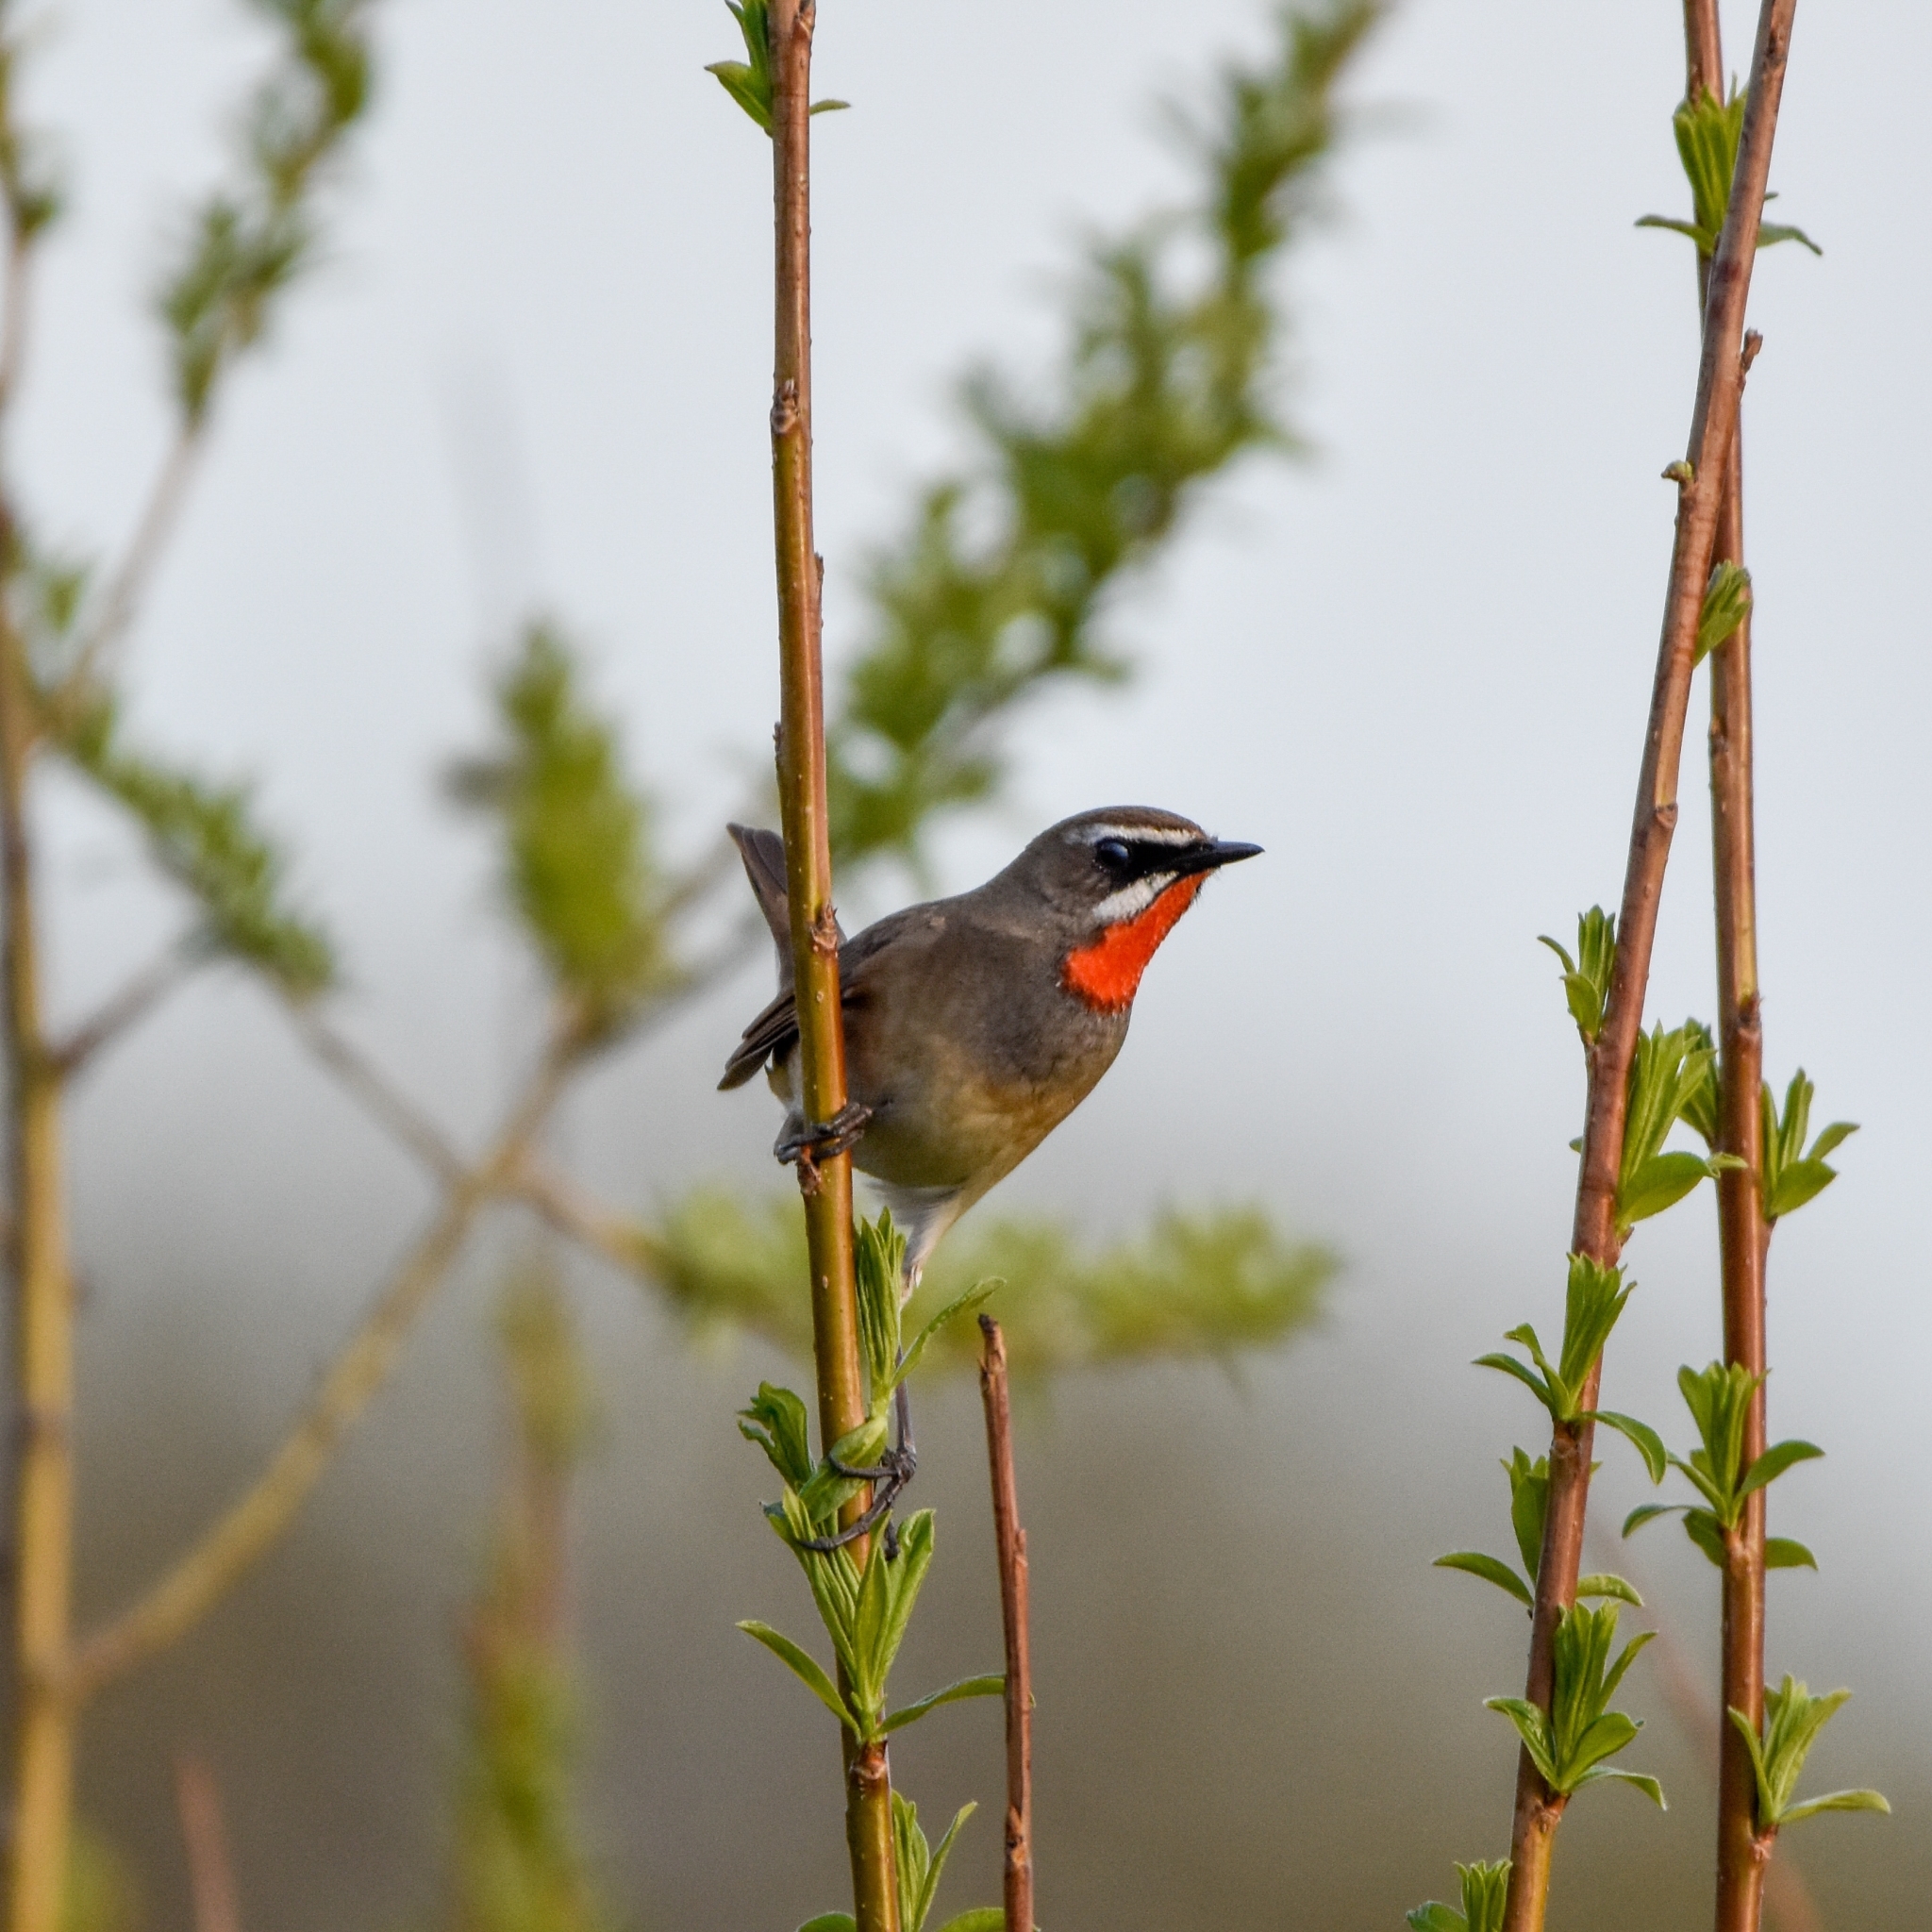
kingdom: Animalia
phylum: Chordata
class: Aves
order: Passeriformes
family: Muscicapidae
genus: Luscinia
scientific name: Luscinia calliope
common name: Siberian rubythroat
